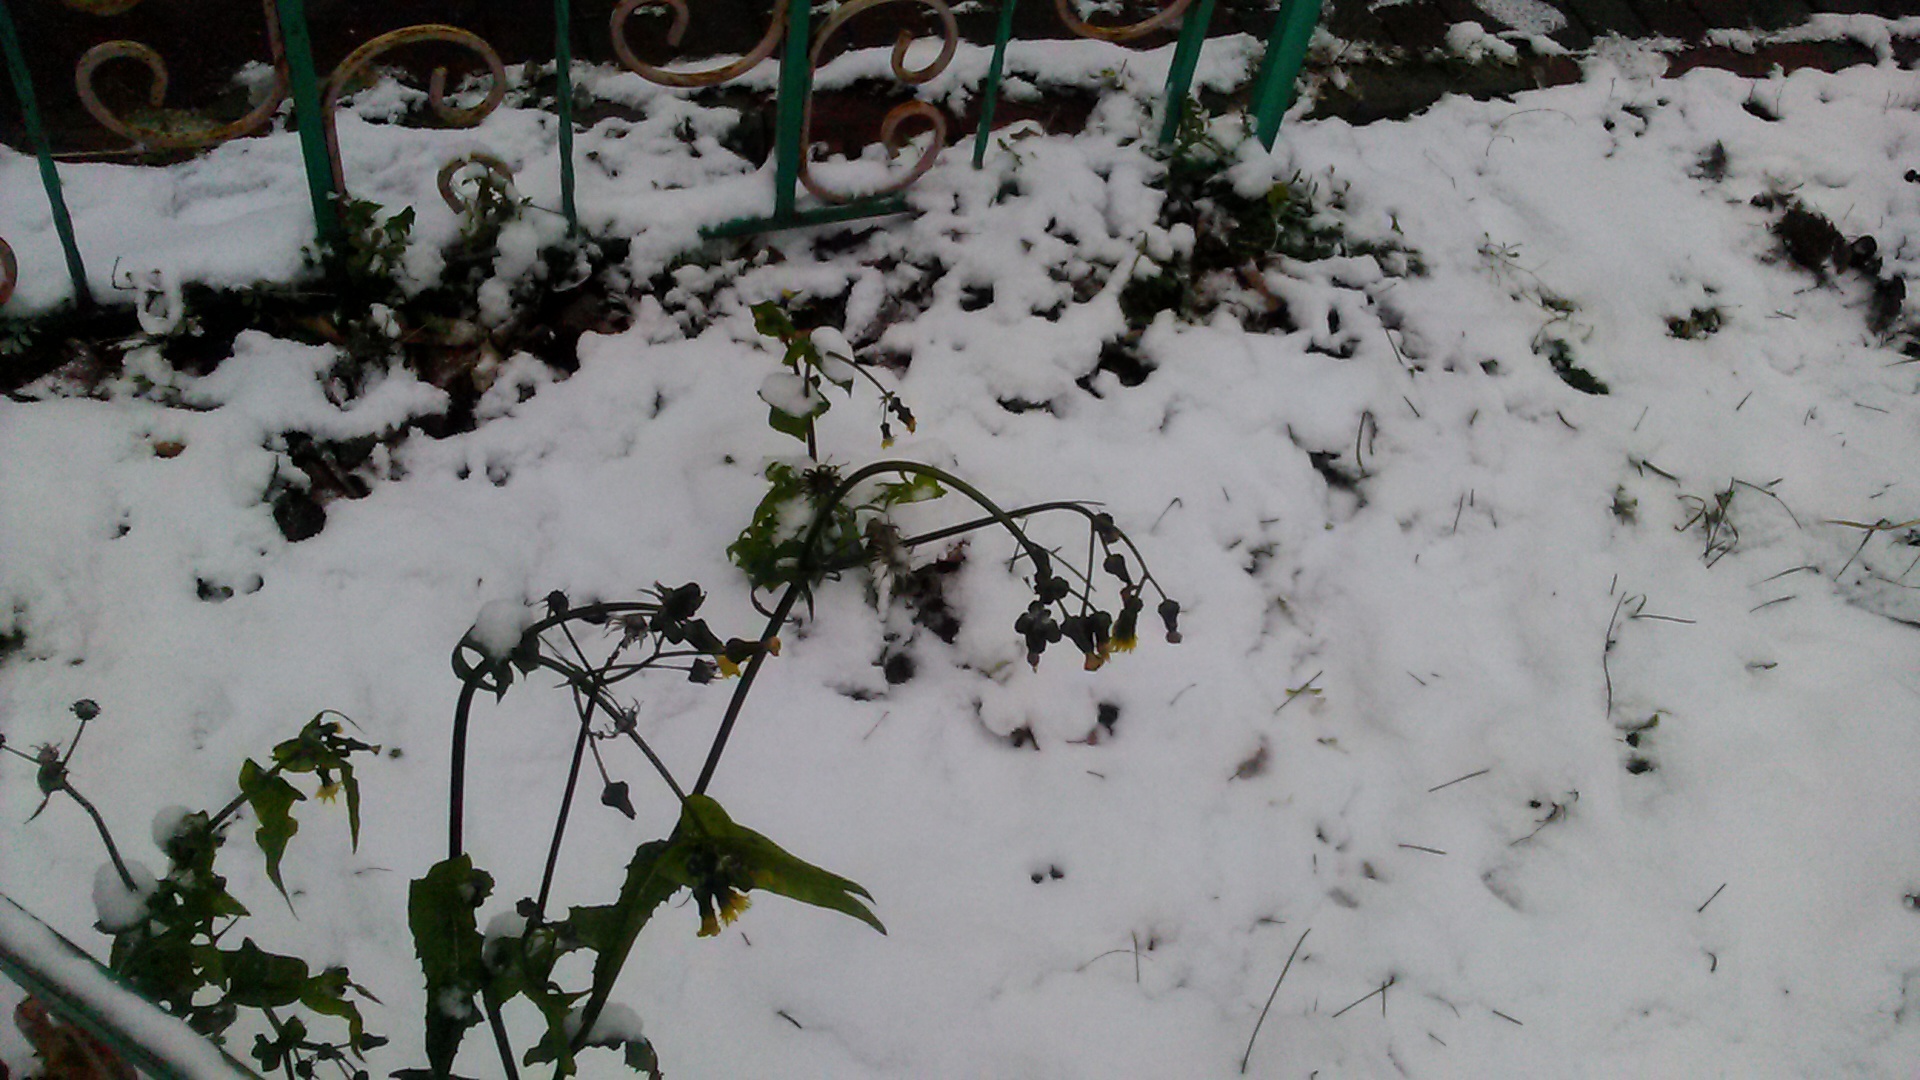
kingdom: Plantae
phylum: Tracheophyta
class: Magnoliopsida
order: Asterales
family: Asteraceae
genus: Sonchus
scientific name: Sonchus oleraceus
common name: Common sowthistle
